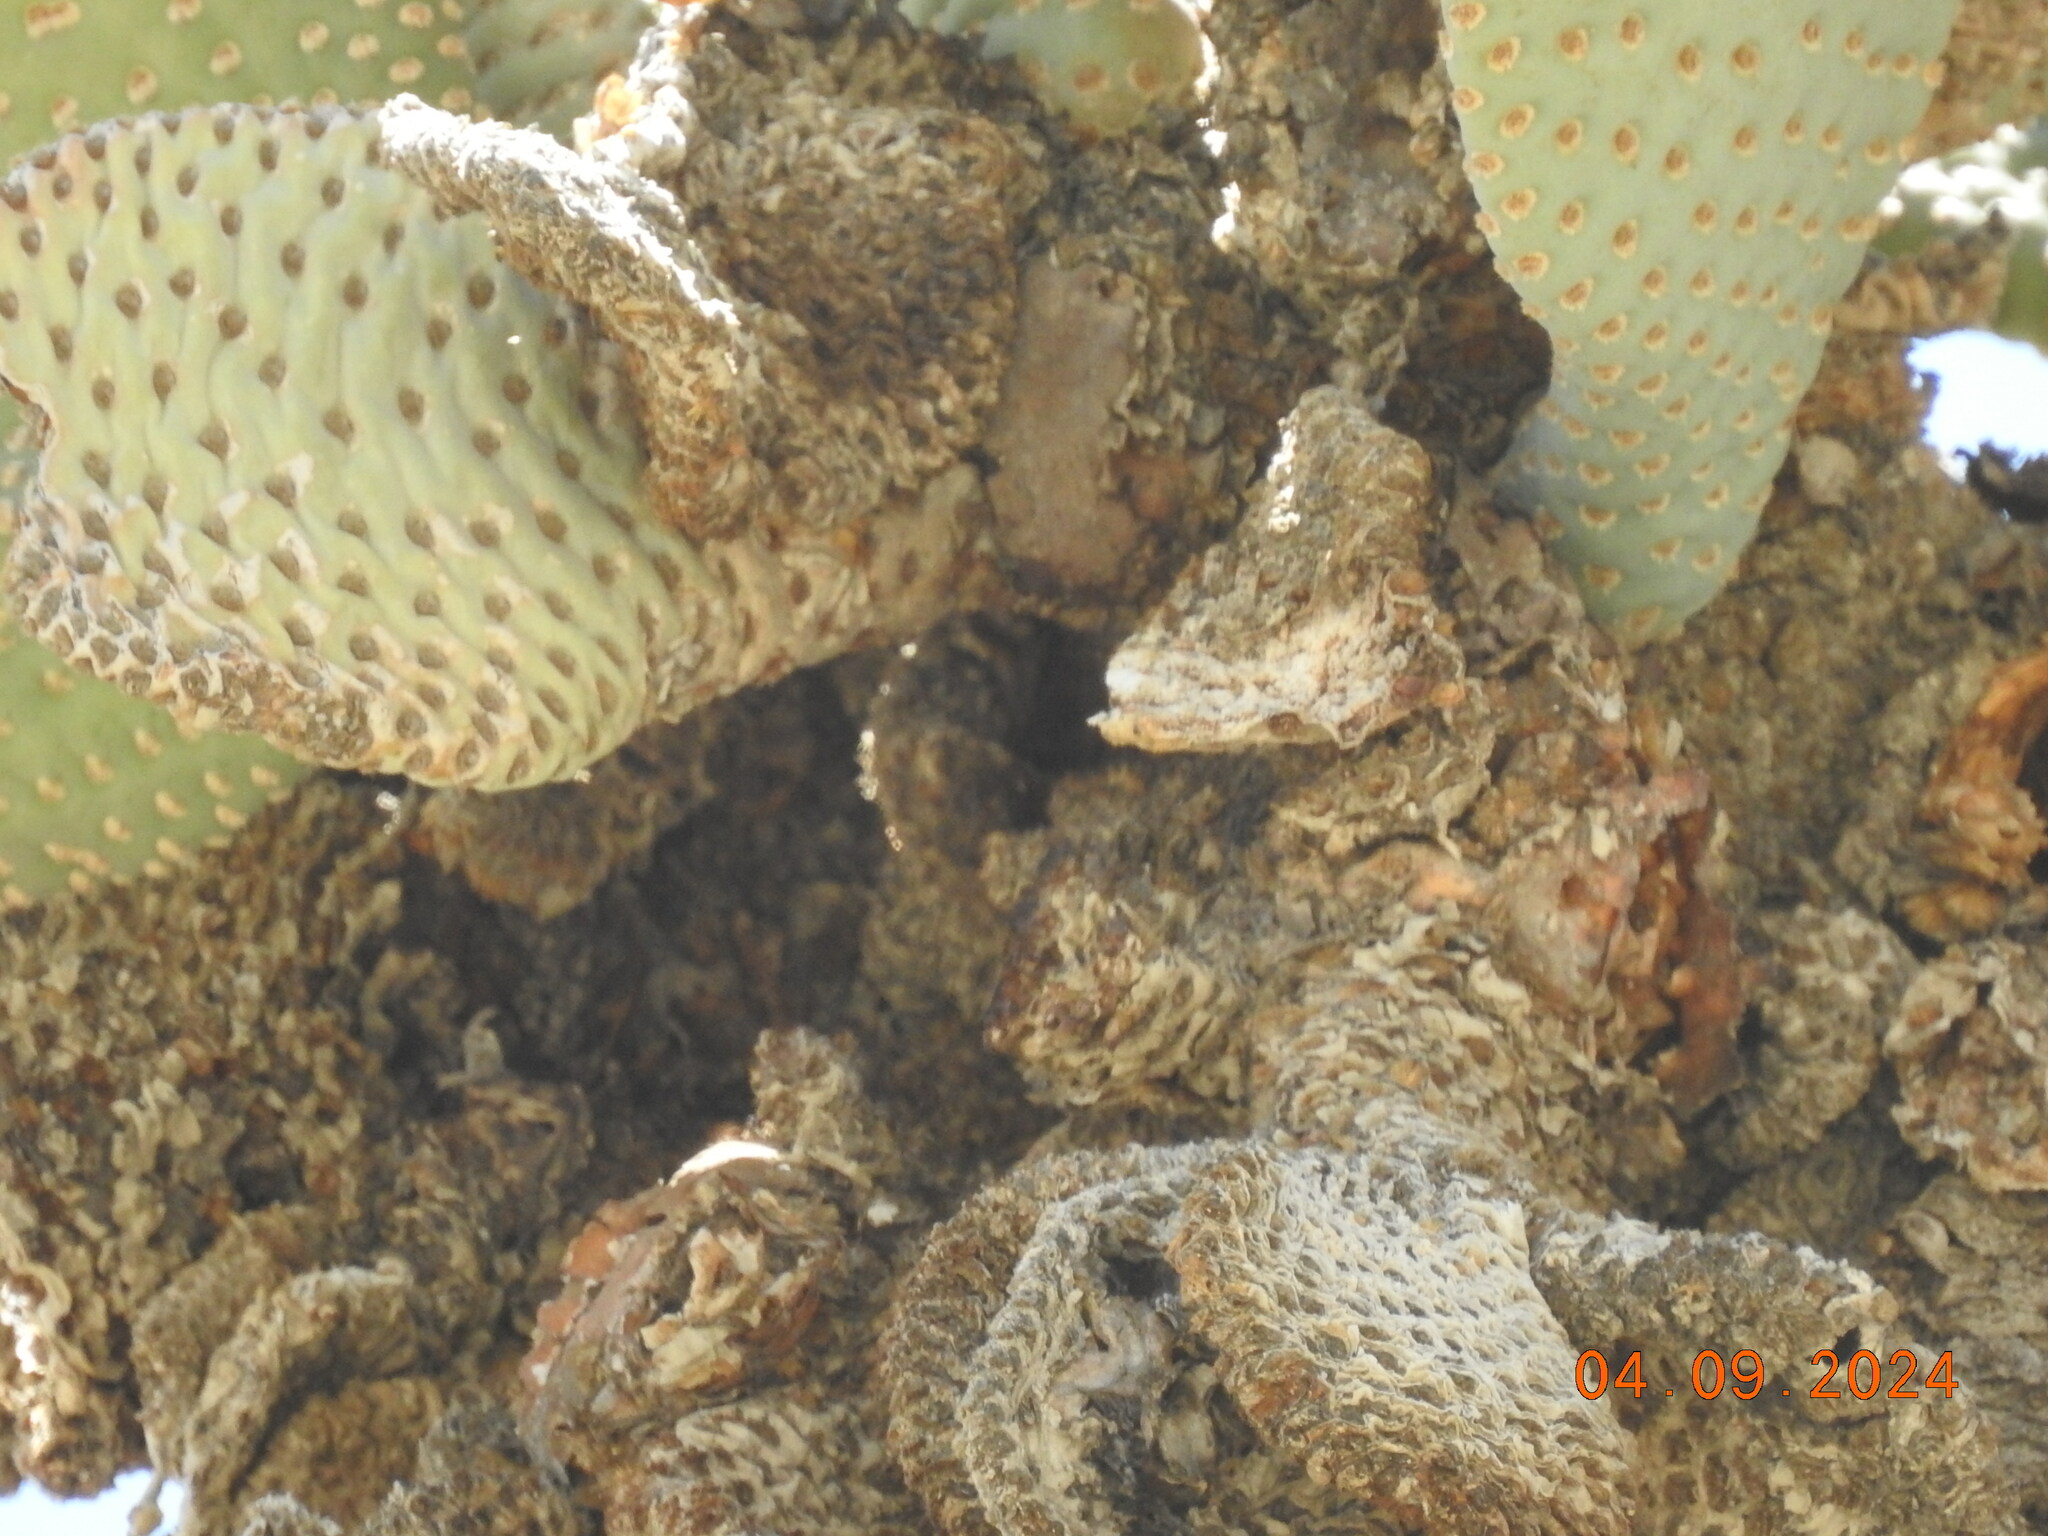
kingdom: Plantae
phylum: Tracheophyta
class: Magnoliopsida
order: Caryophyllales
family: Cactaceae
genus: Opuntia
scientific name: Opuntia basilaris
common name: Beavertail prickly-pear
